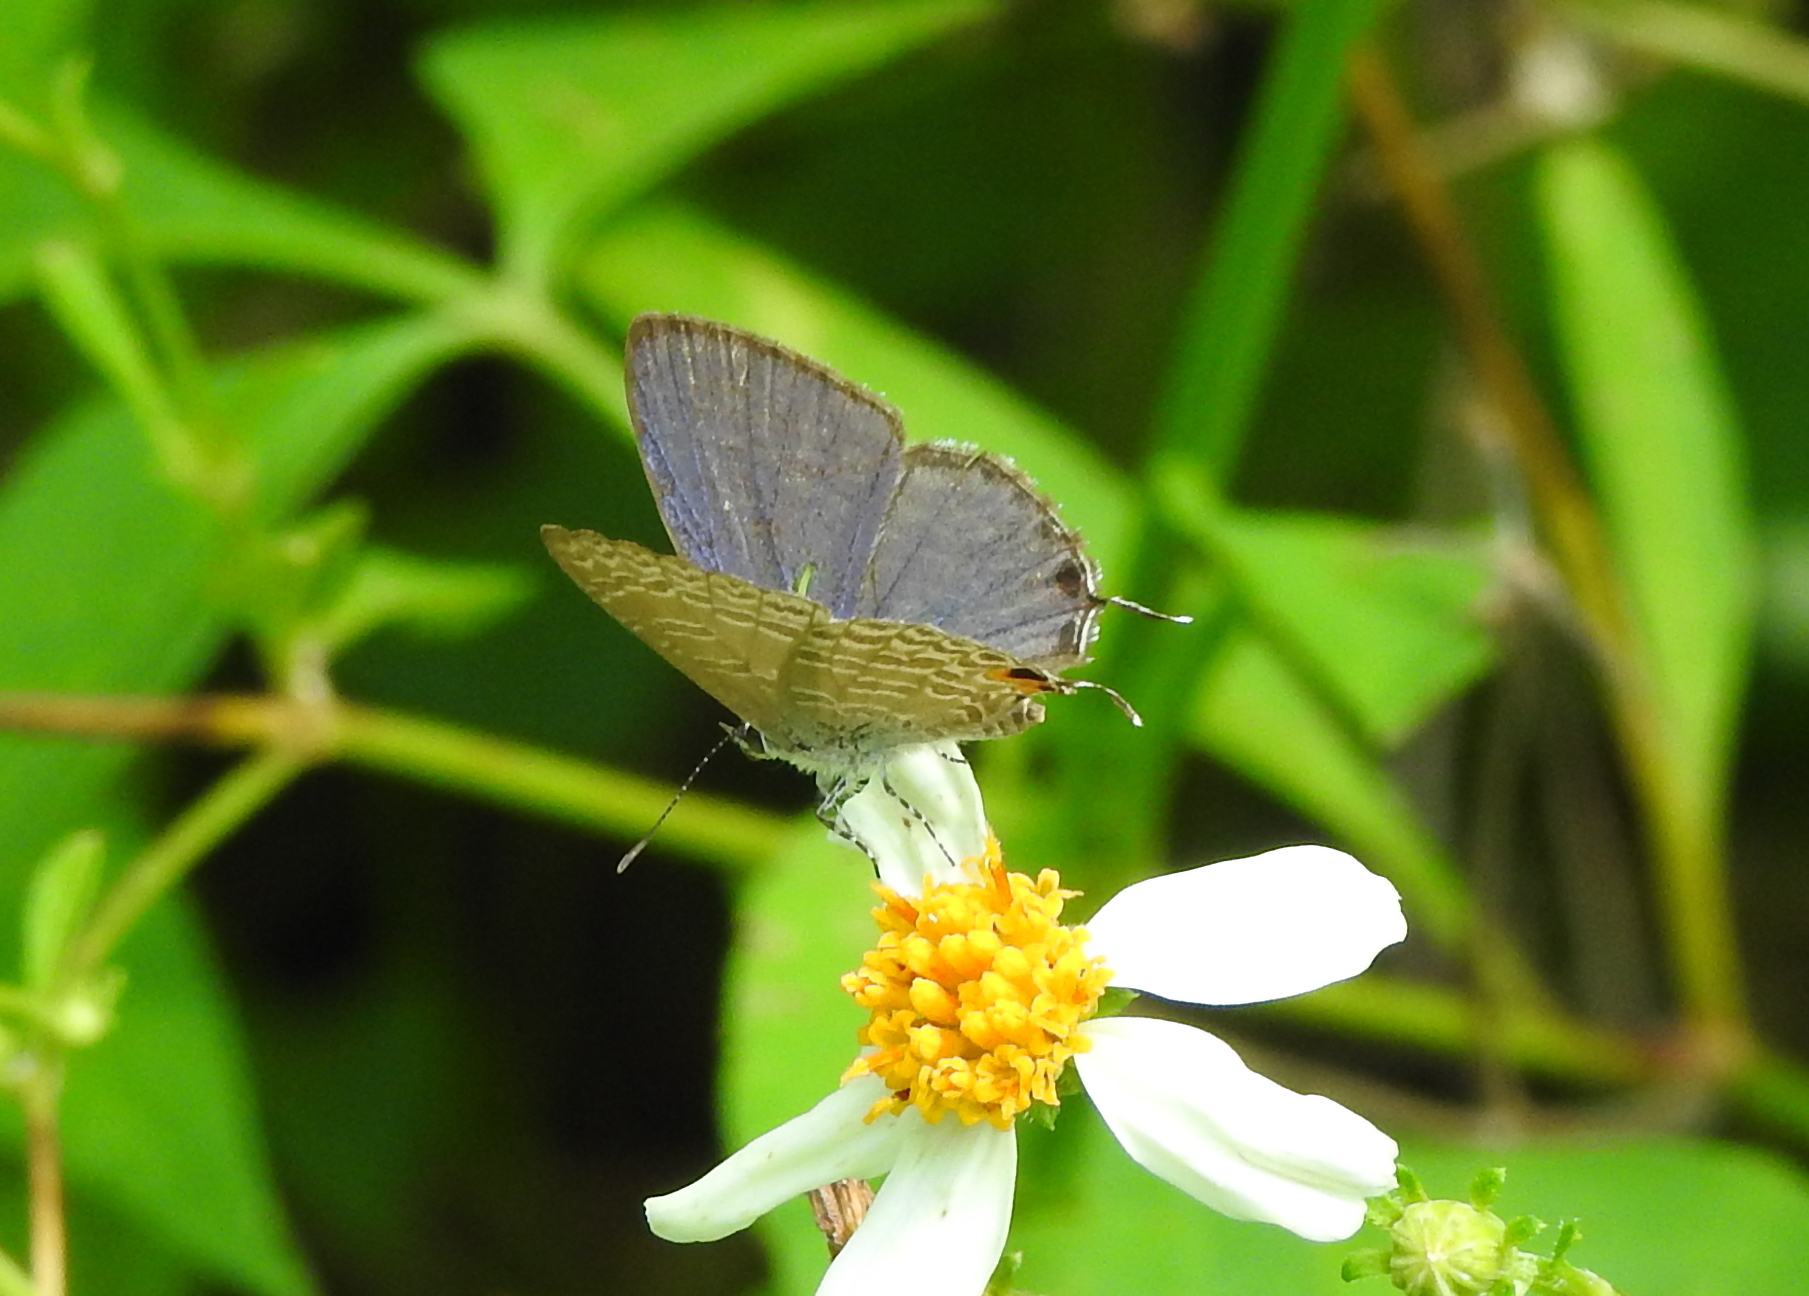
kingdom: Animalia
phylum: Arthropoda
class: Insecta
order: Lepidoptera
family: Lycaenidae
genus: Catopyrops
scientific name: Catopyrops ancyra
